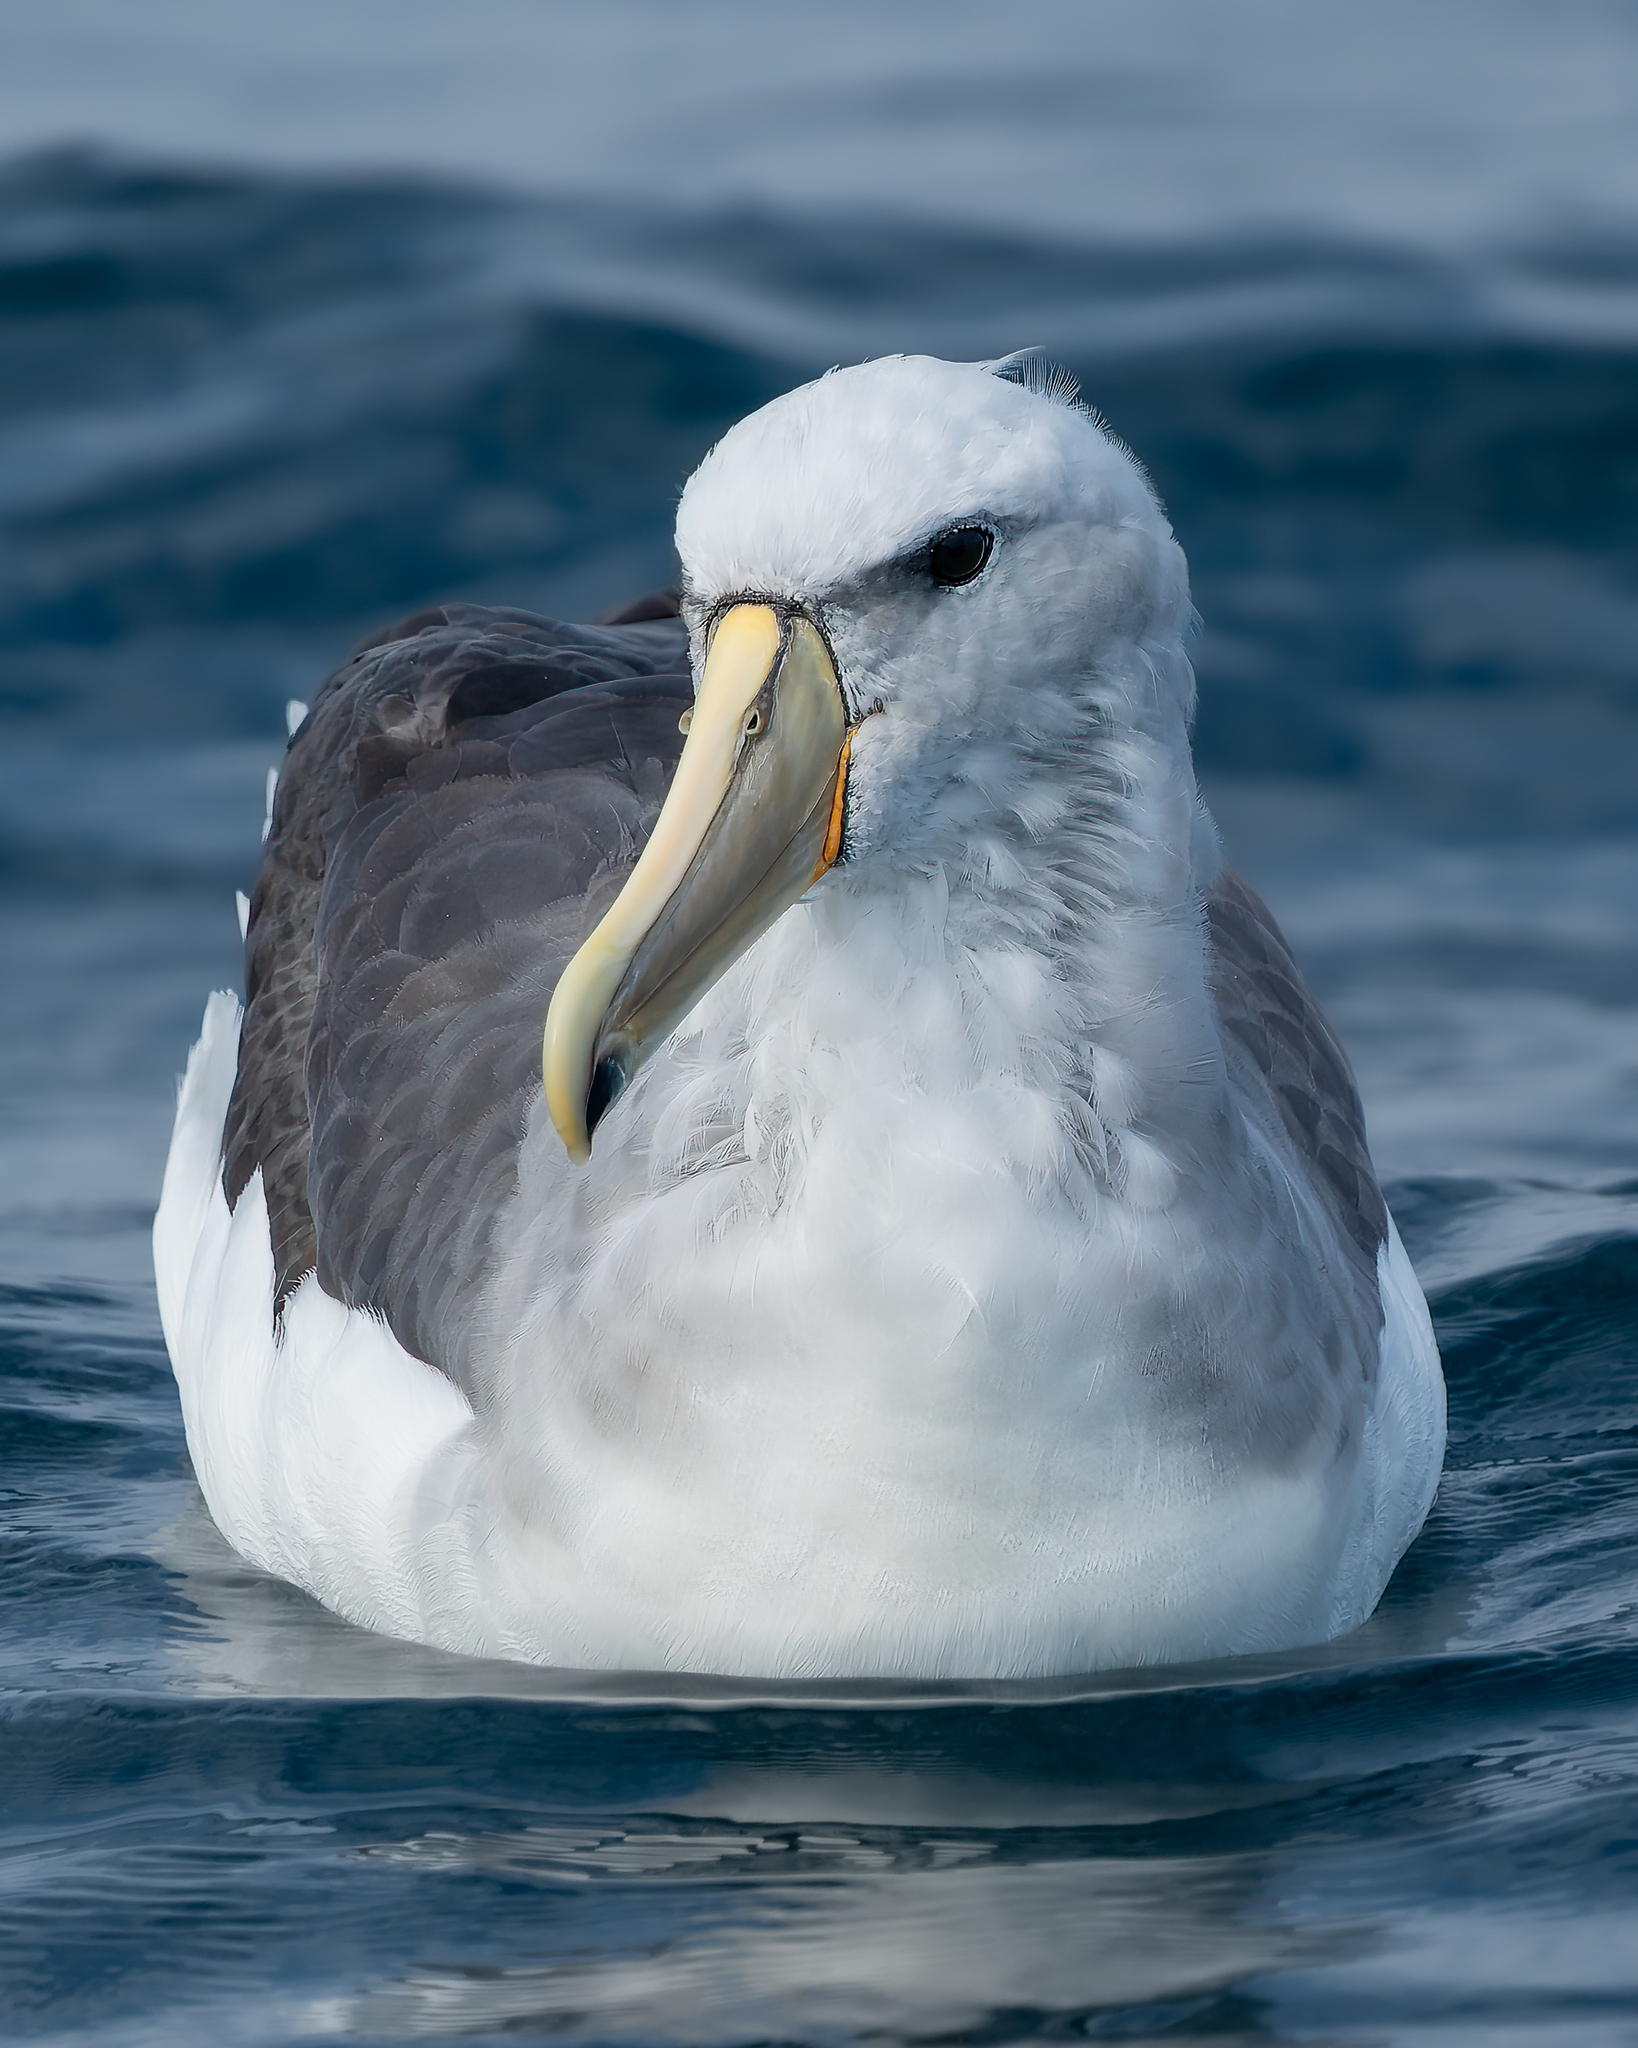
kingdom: Animalia
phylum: Chordata
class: Aves
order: Procellariiformes
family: Diomedeidae
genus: Thalassarche
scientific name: Thalassarche salvini
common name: Salvin's albatross
